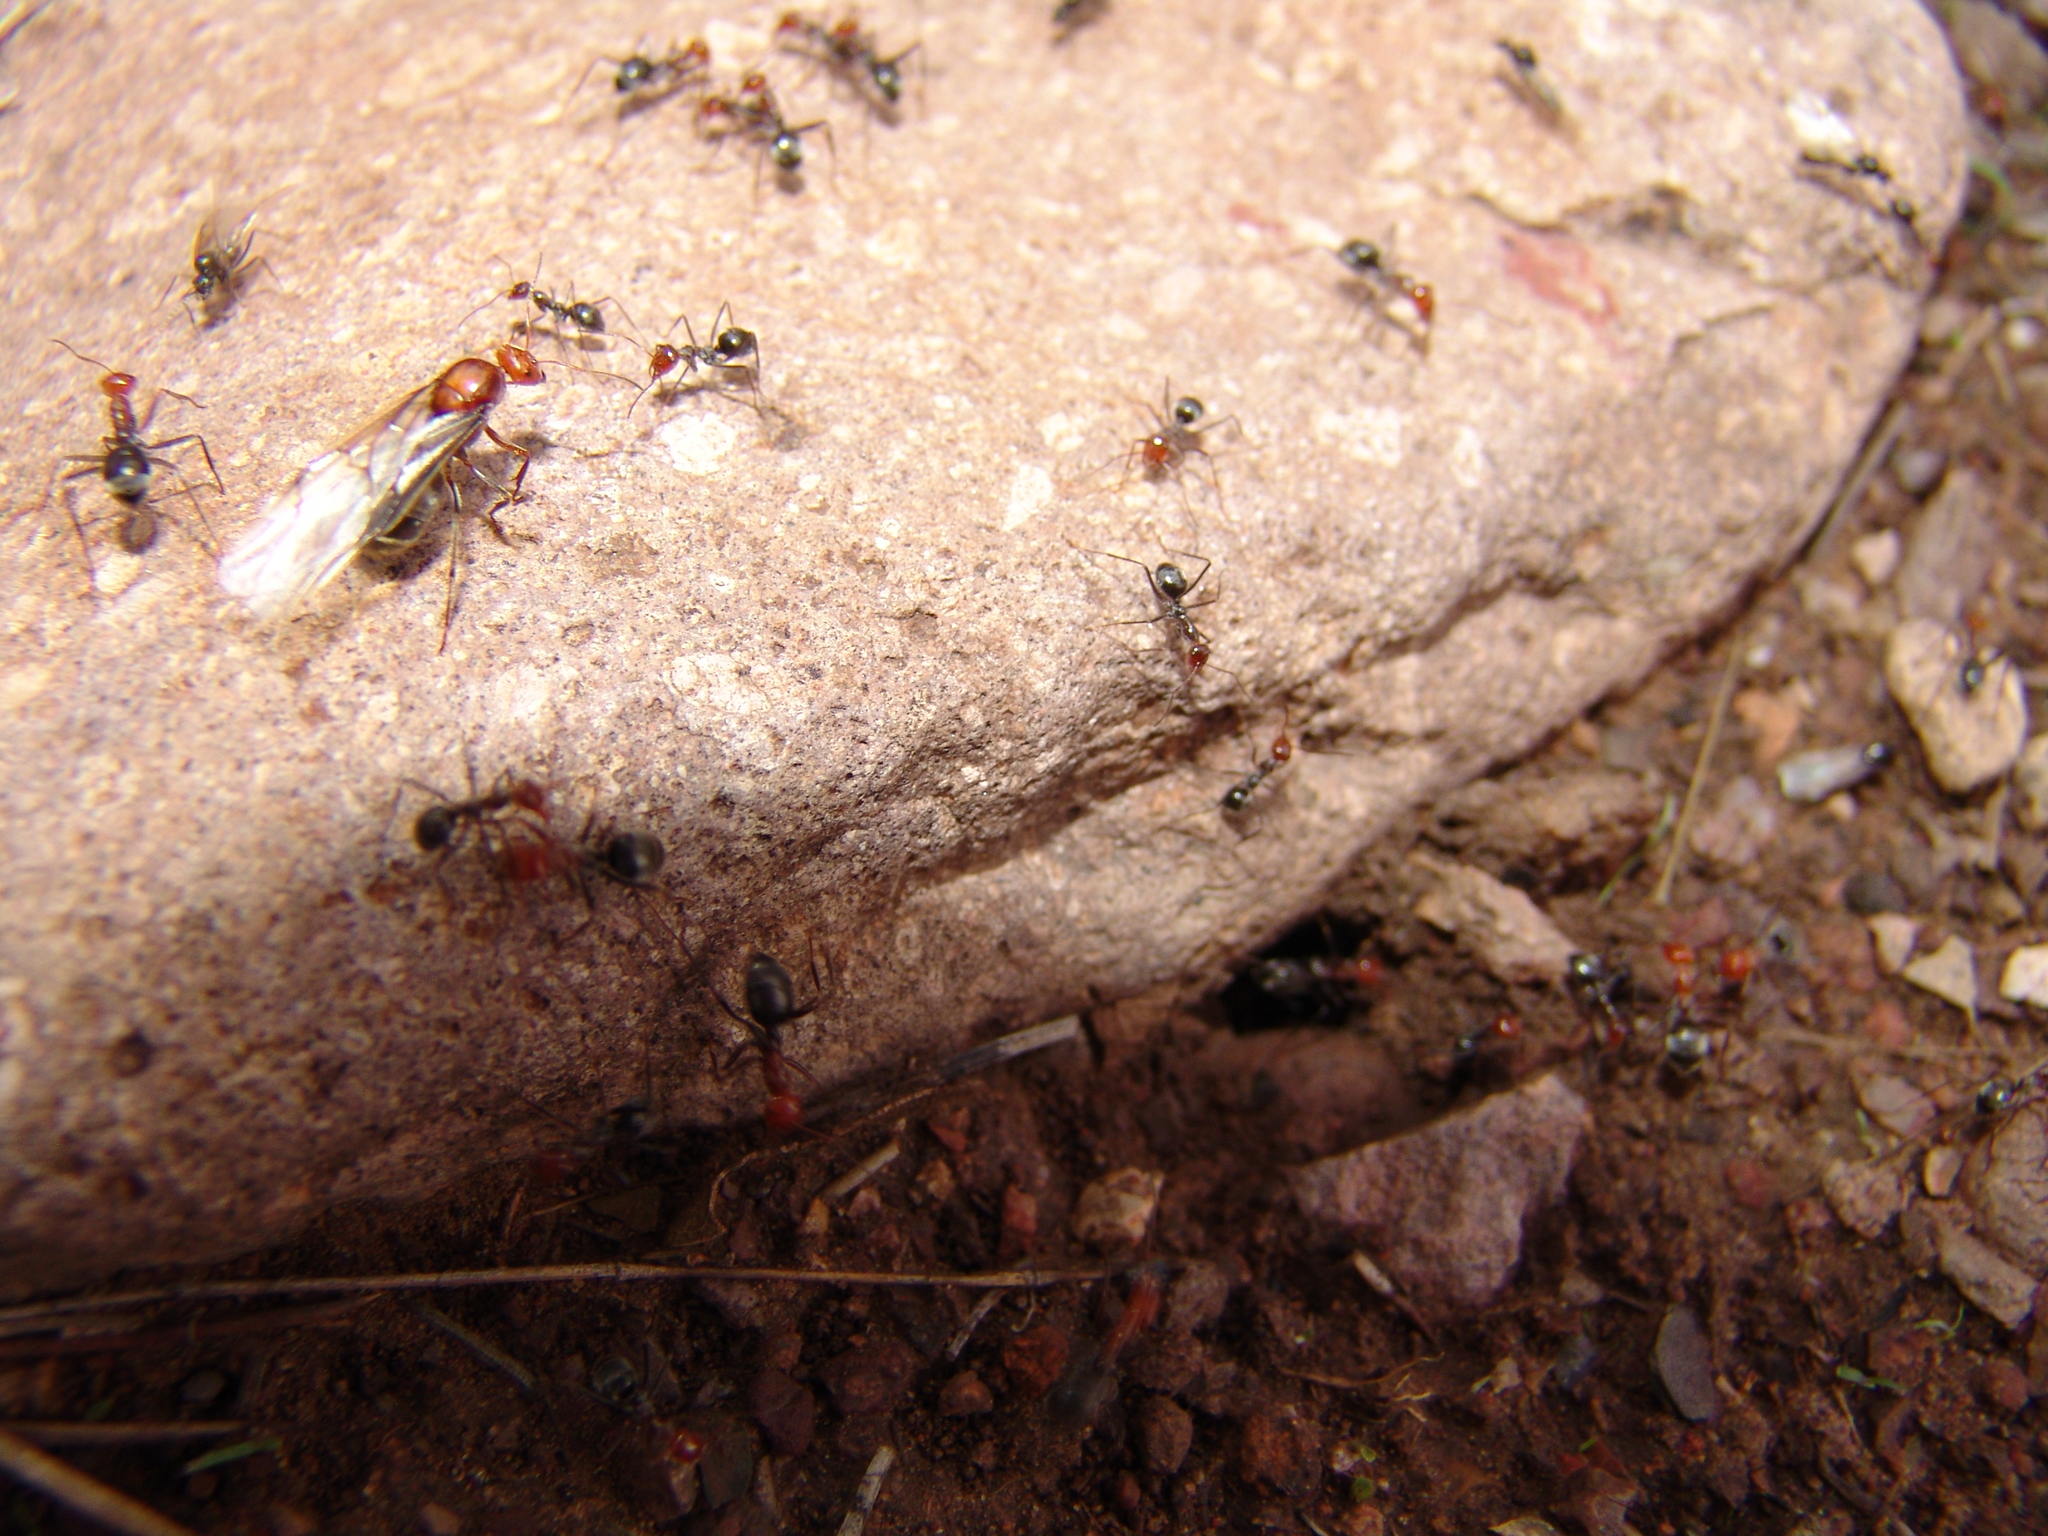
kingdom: Animalia
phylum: Arthropoda
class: Insecta
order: Hymenoptera
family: Formicidae
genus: Myrmecocystus
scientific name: Myrmecocystus mendax
